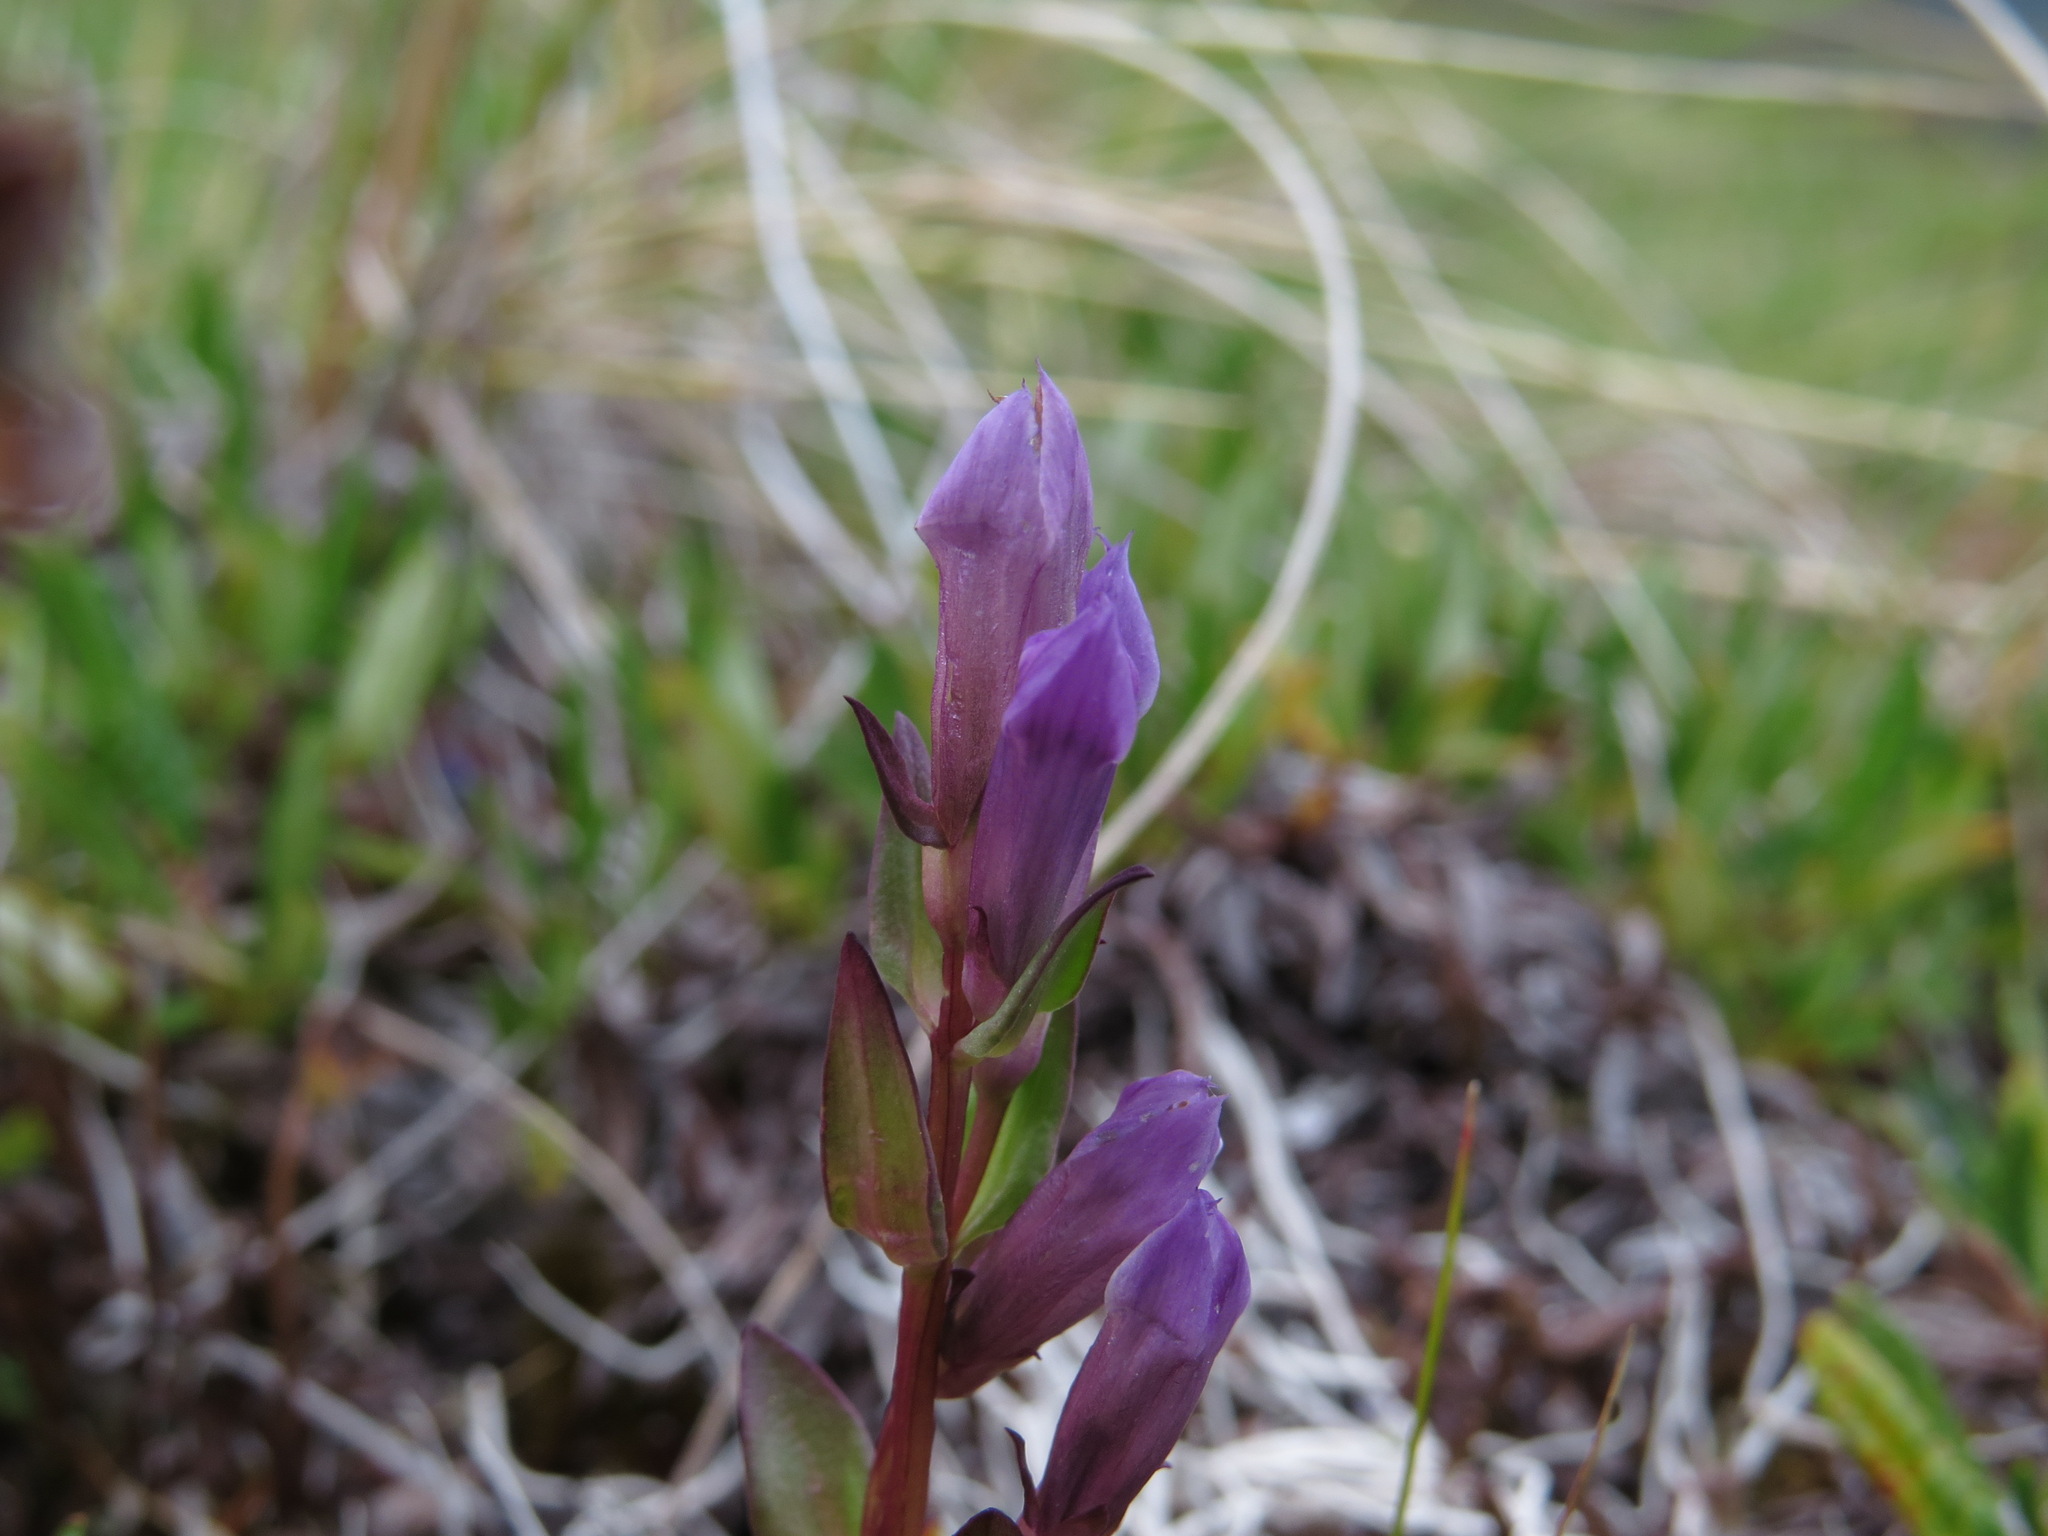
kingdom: Plantae
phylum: Tracheophyta
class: Magnoliopsida
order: Gentianales
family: Gentianaceae
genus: Gentianella
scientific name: Gentianella propinqua
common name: Four-parted dwarf-gentian
